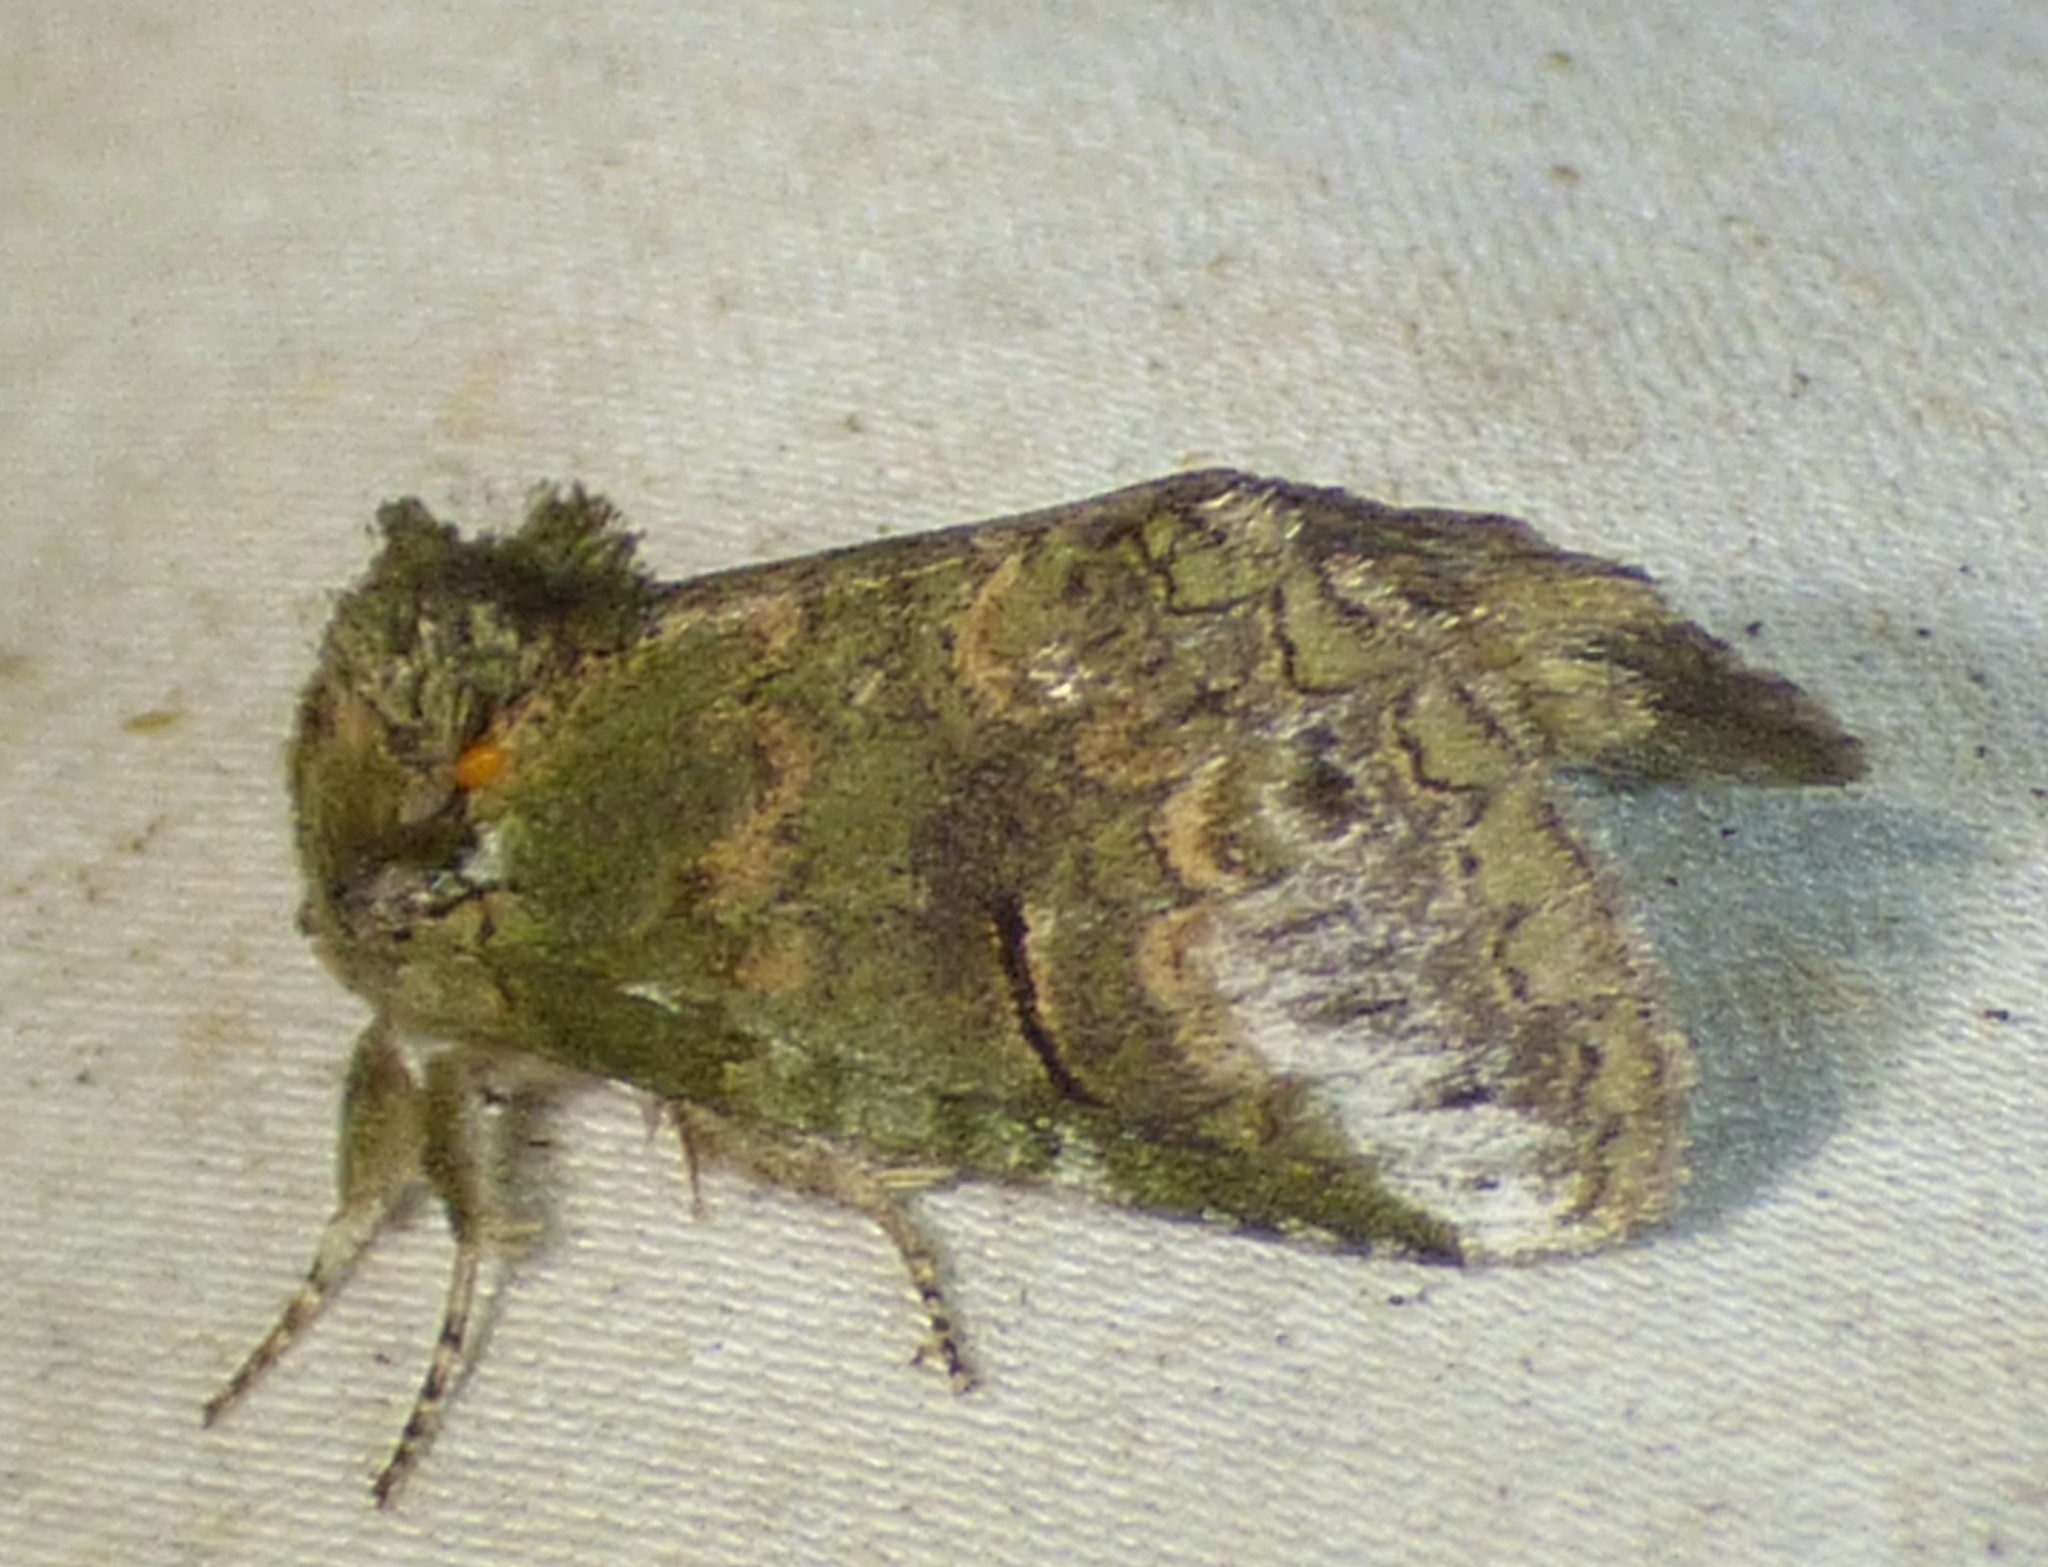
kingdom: Animalia
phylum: Arthropoda
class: Insecta
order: Lepidoptera
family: Notodontidae
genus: Rifargia
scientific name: Rifargia
